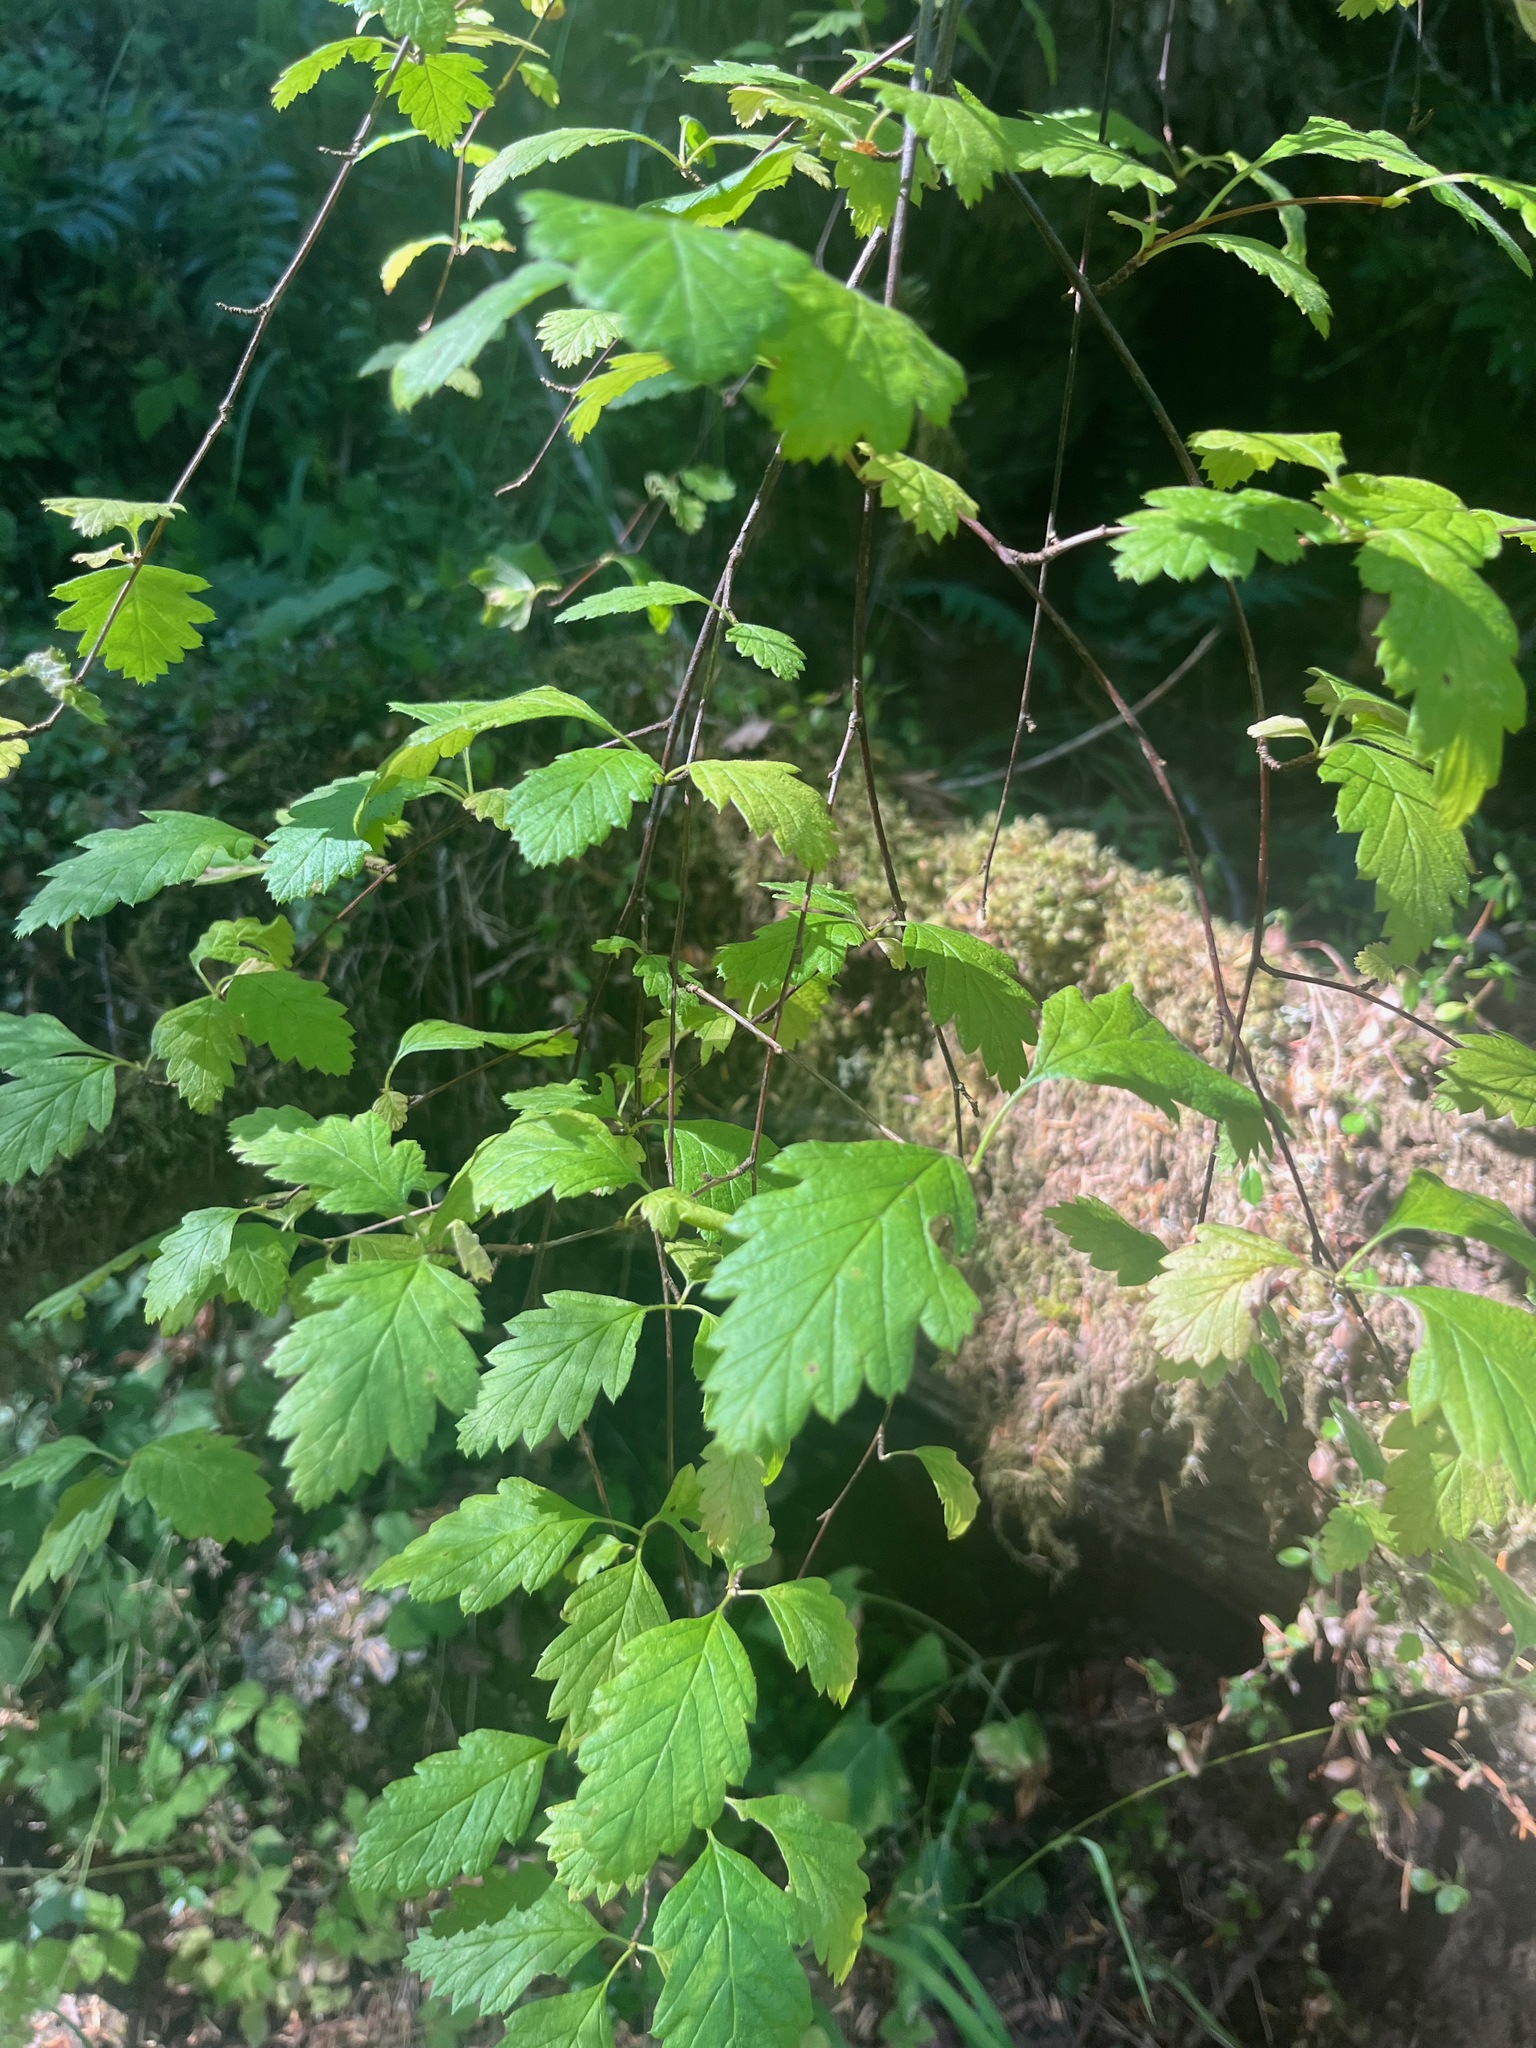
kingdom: Plantae
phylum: Tracheophyta
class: Magnoliopsida
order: Rosales
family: Rosaceae
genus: Holodiscus
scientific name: Holodiscus discolor
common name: Oceanspray
